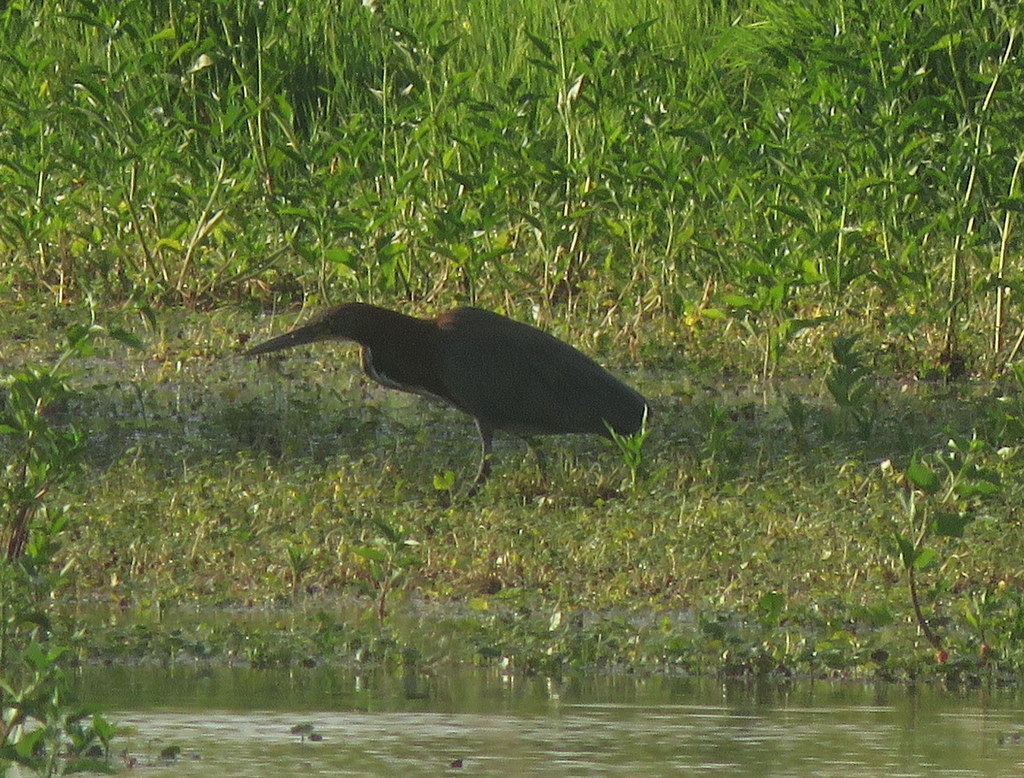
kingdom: Animalia
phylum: Chordata
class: Aves
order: Pelecaniformes
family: Ardeidae
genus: Tigrisoma
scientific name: Tigrisoma lineatum
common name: Rufescent tiger-heron
